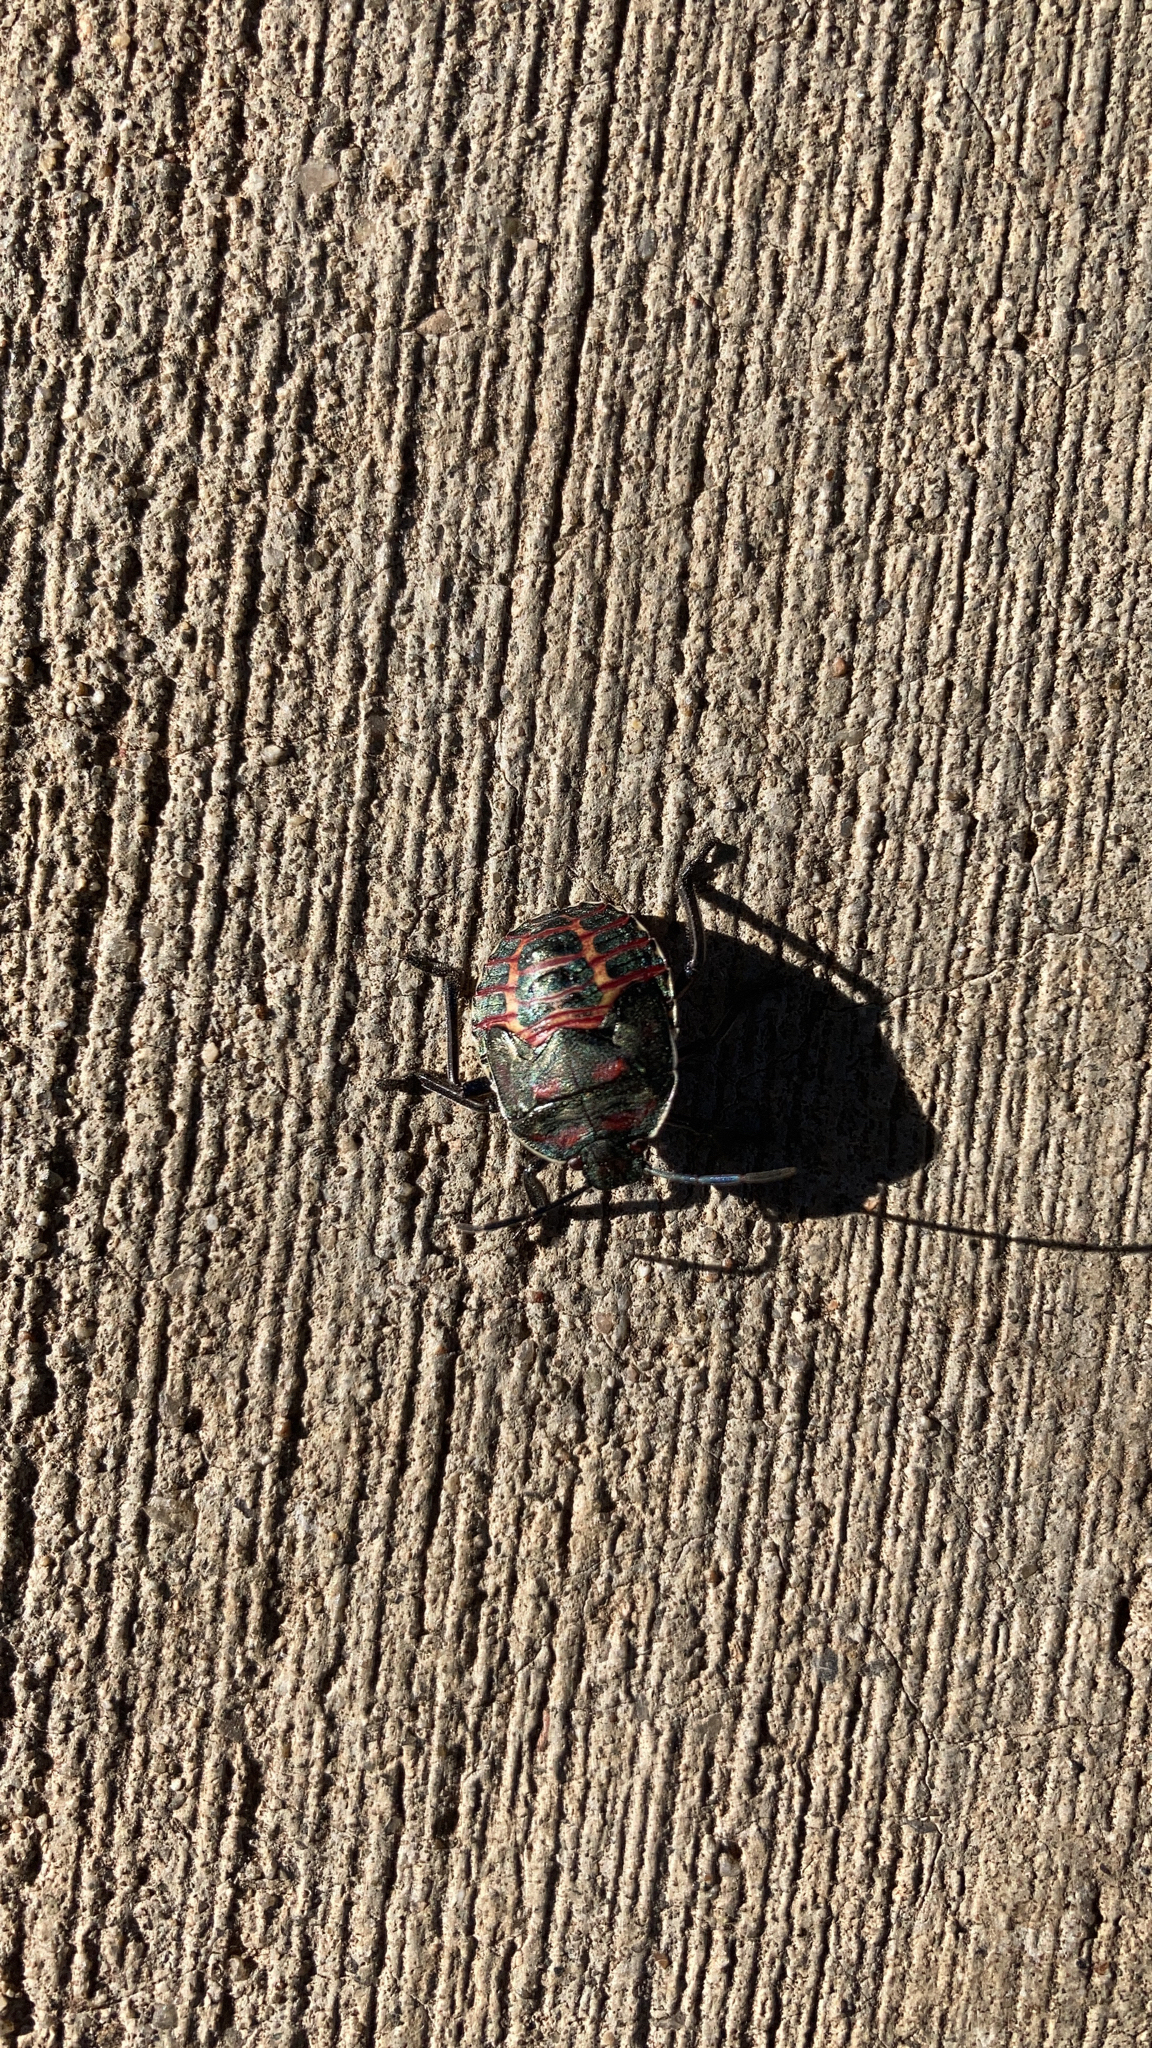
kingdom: Animalia
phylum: Arthropoda
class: Insecta
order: Hemiptera
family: Pentatomidae
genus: Pellaea
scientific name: Pellaea stictica
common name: Stink bug
